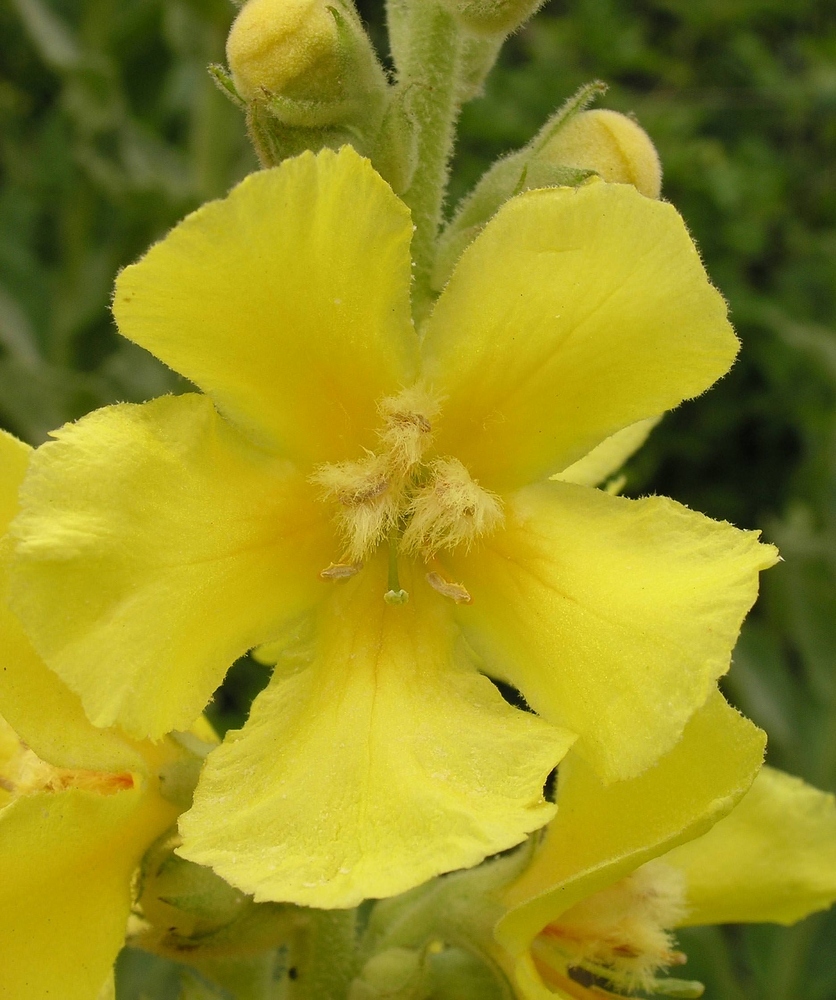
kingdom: Plantae
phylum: Tracheophyta
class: Magnoliopsida
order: Lamiales
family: Scrophulariaceae
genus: Verbascum
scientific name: Verbascum phlomoides
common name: Orange mullein
